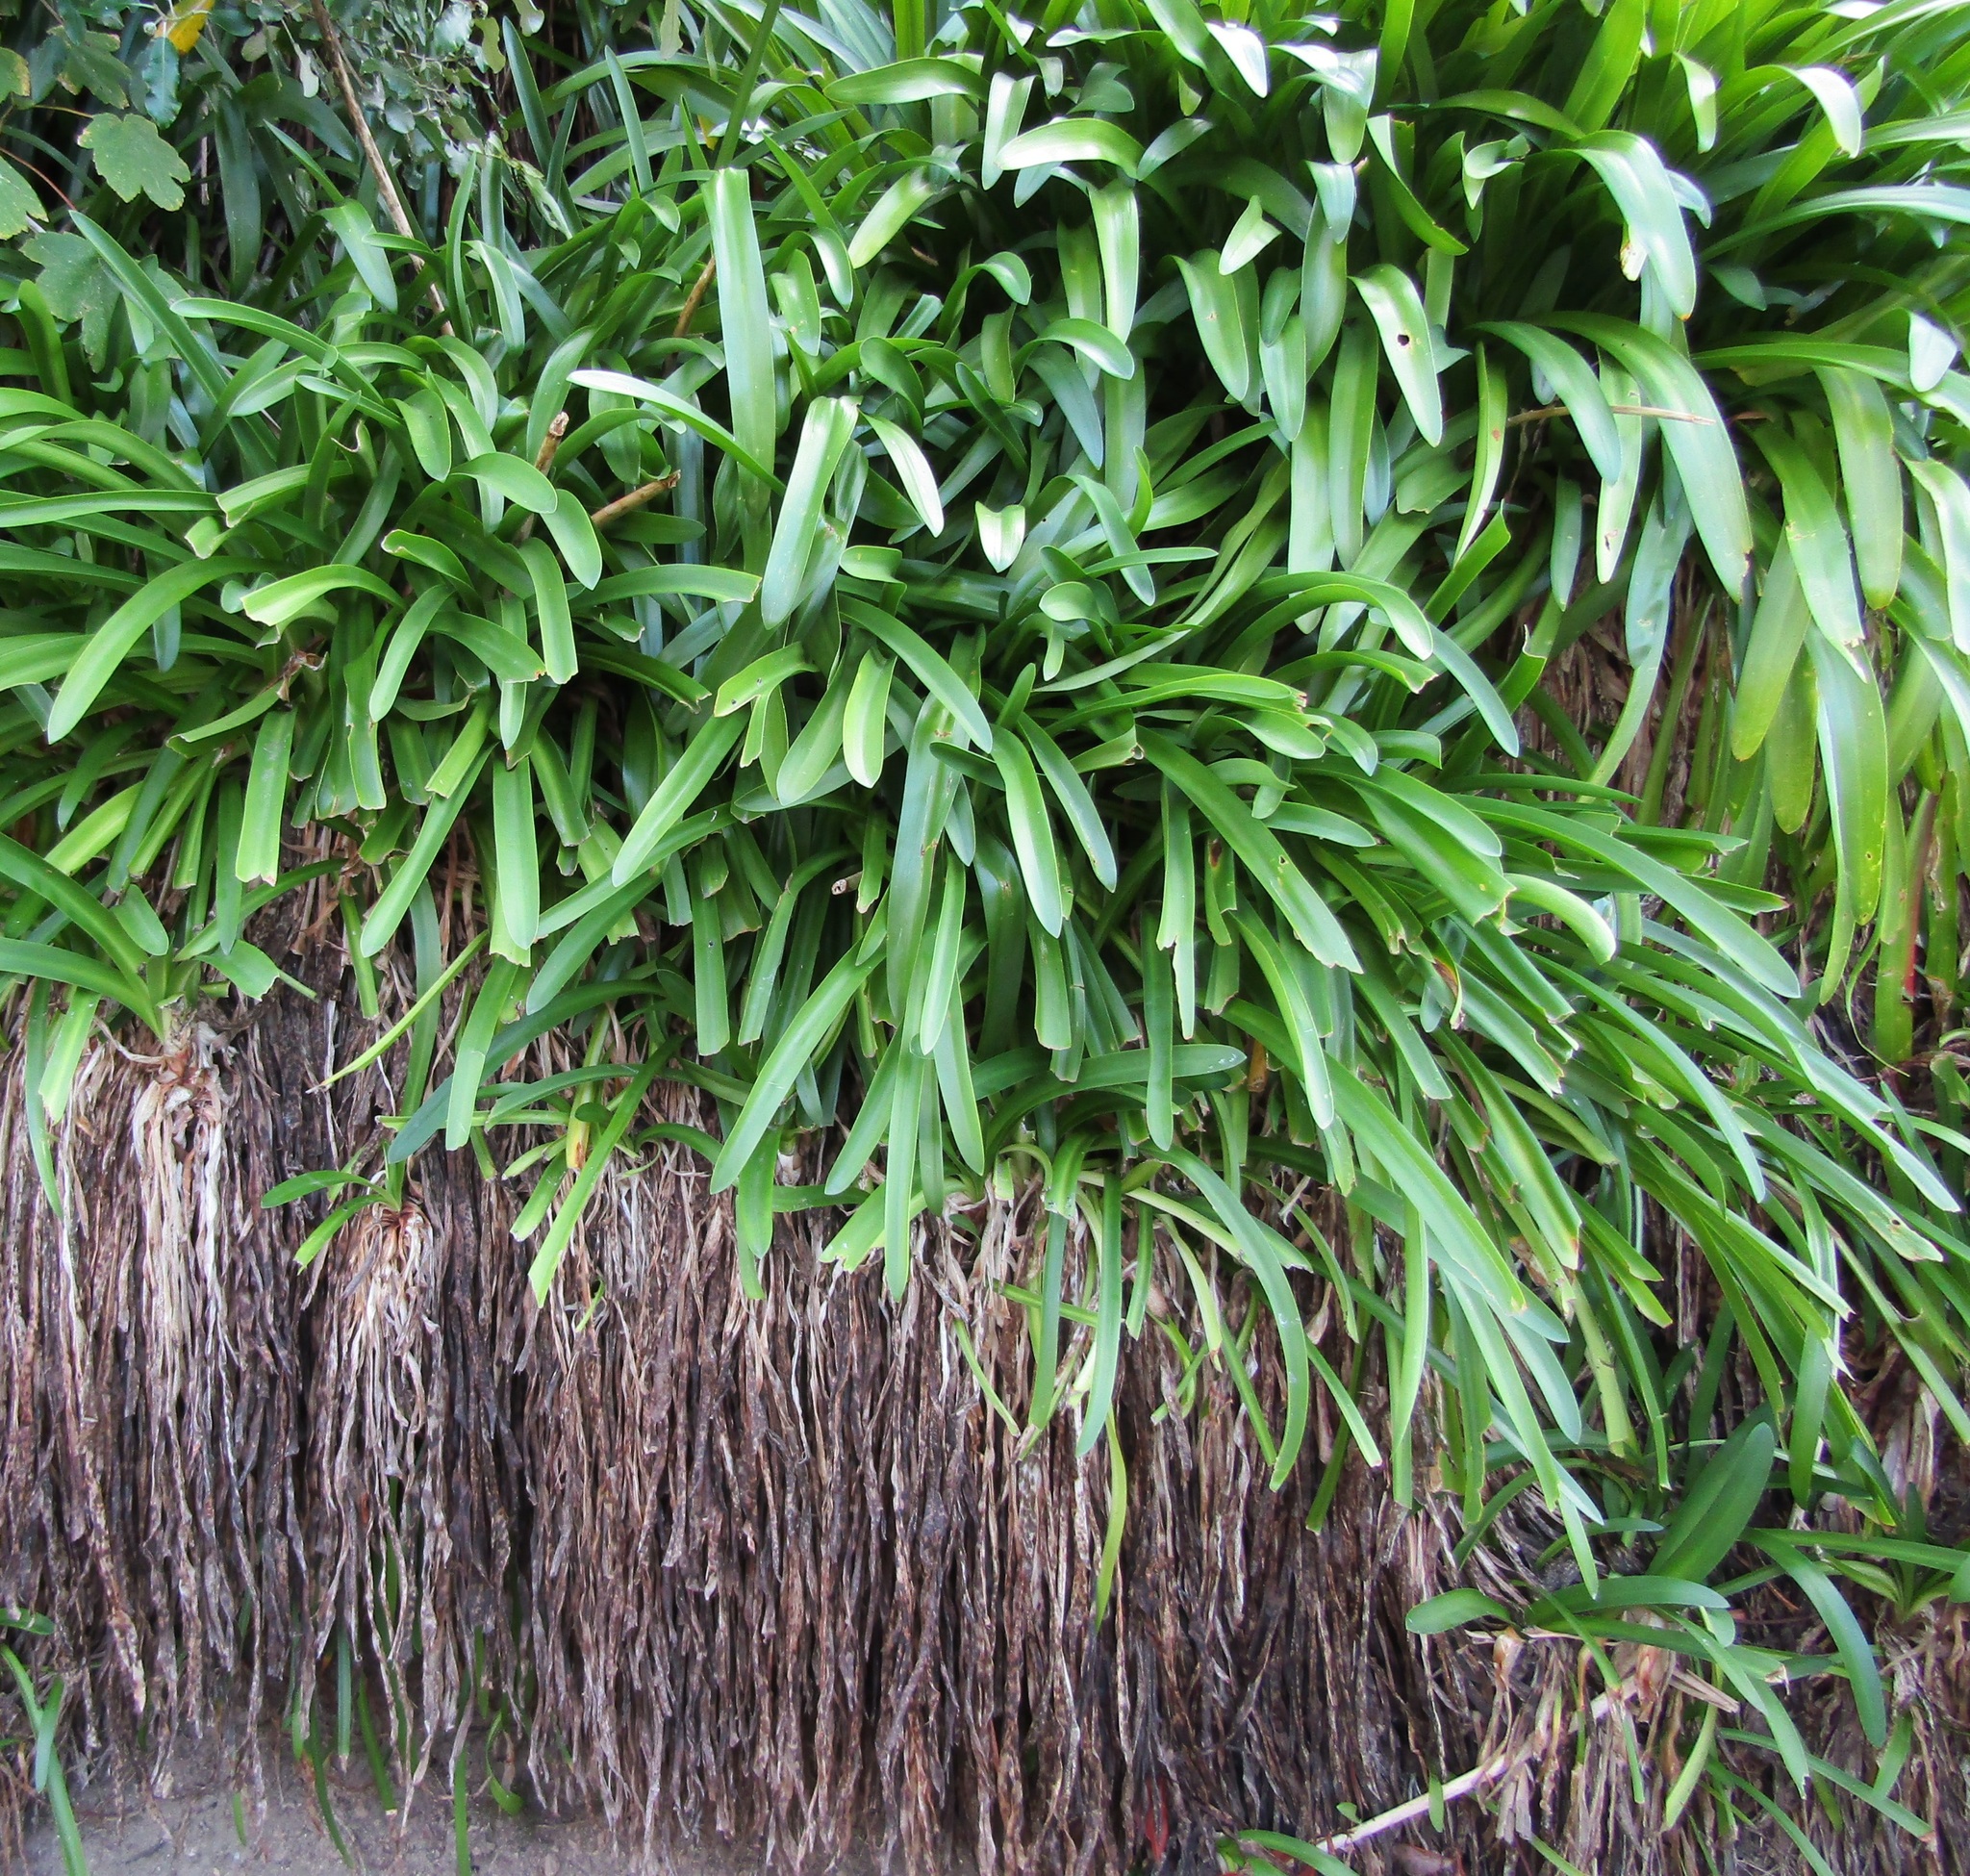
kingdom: Plantae
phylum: Tracheophyta
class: Liliopsida
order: Asparagales
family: Amaryllidaceae
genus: Agapanthus
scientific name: Agapanthus praecox
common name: African-lily
